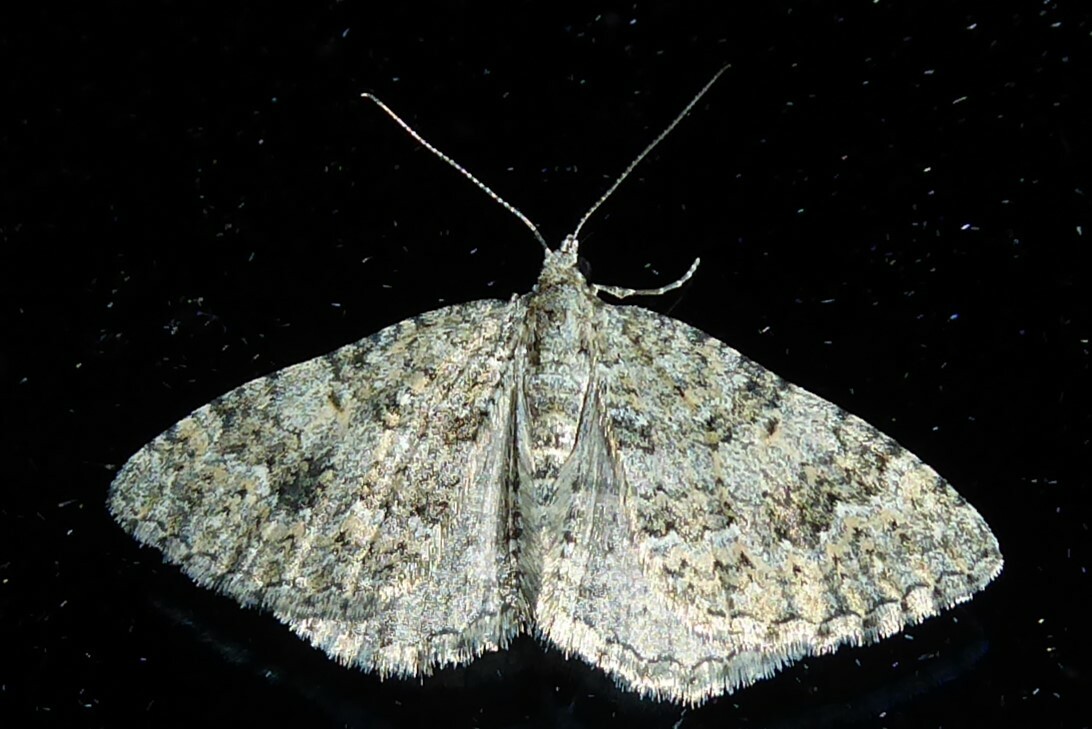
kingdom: Animalia
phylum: Arthropoda
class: Insecta
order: Lepidoptera
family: Geometridae
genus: Helastia
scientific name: Helastia corcularia
